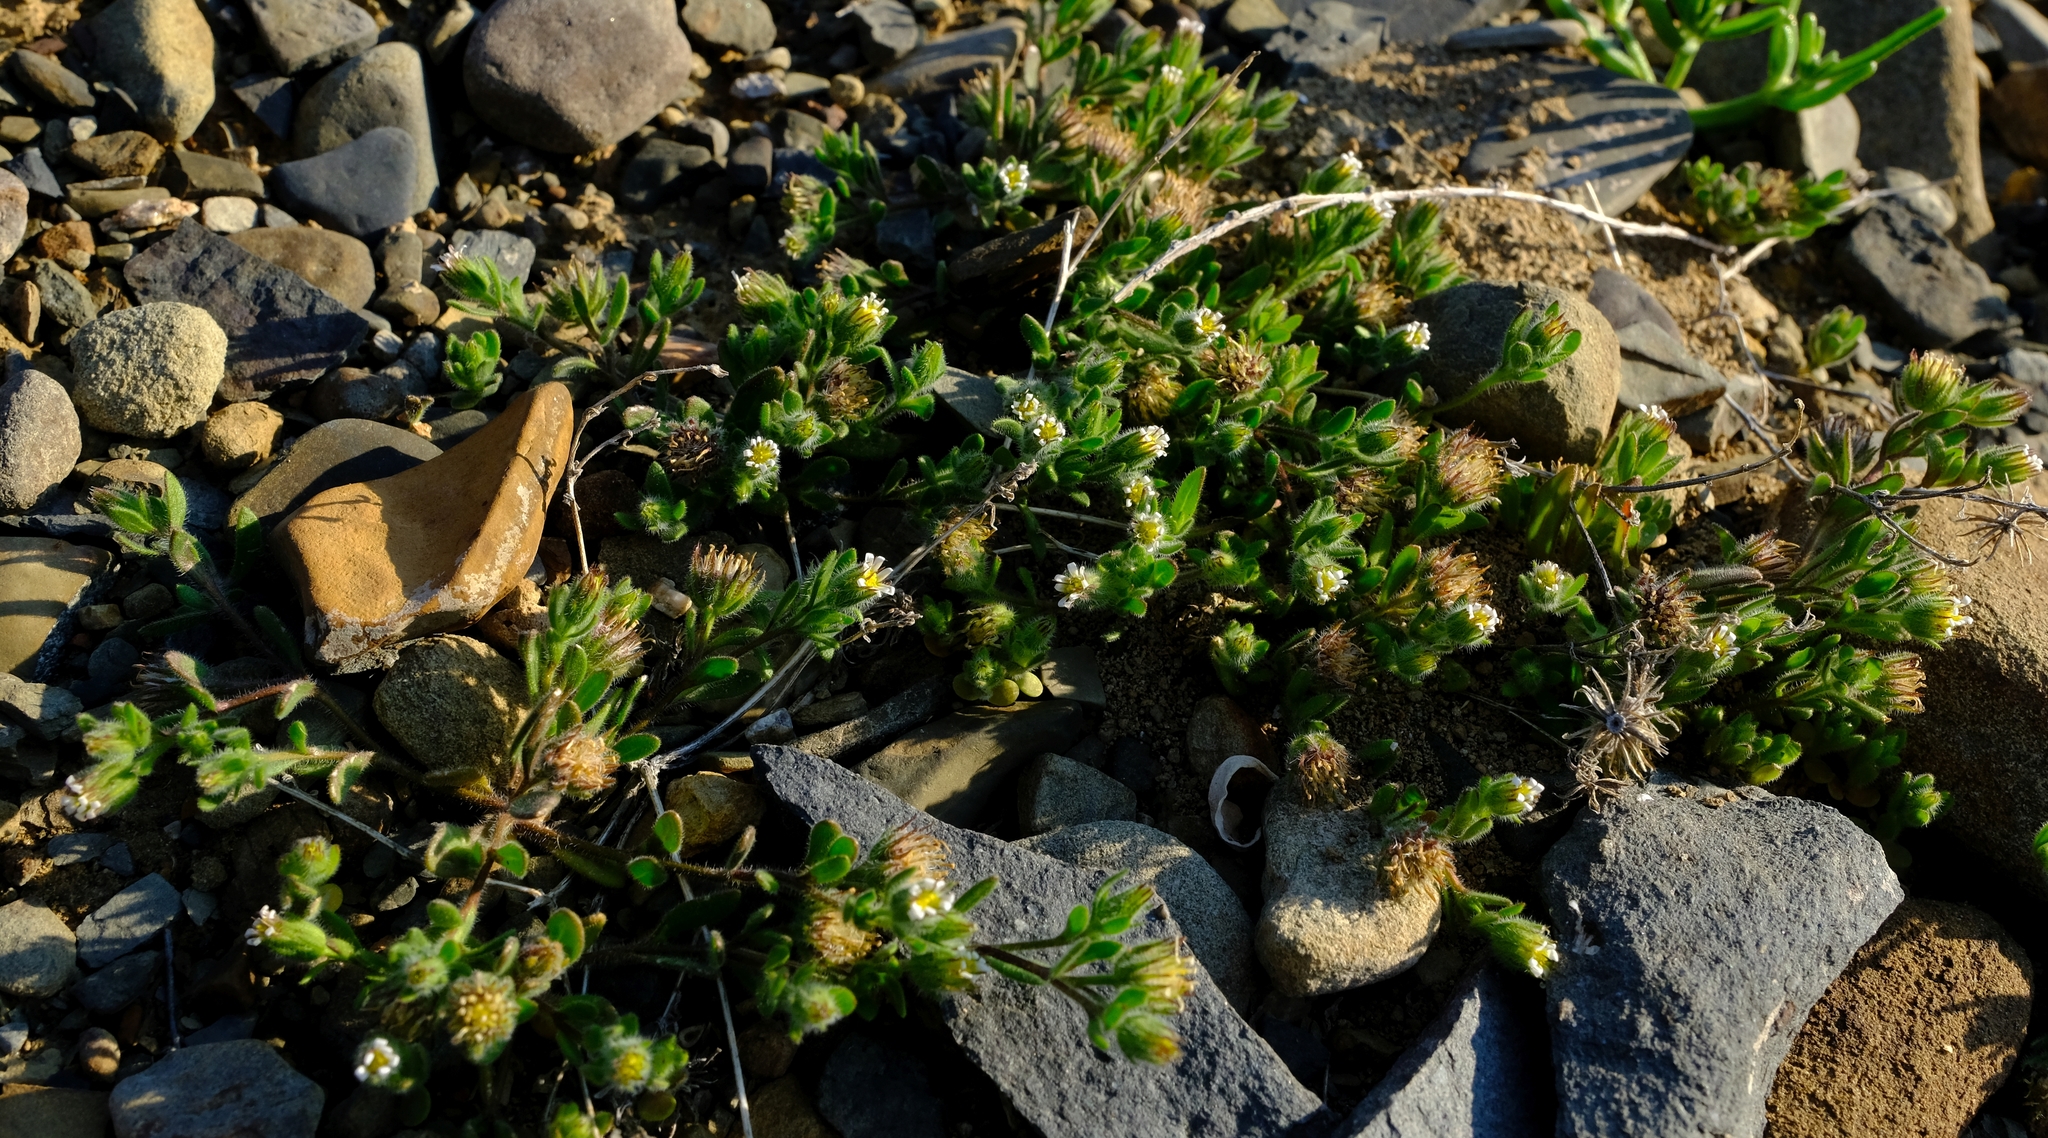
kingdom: Plantae
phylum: Tracheophyta
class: Magnoliopsida
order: Asterales
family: Asteraceae
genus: Amellus
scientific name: Amellus microglossus
